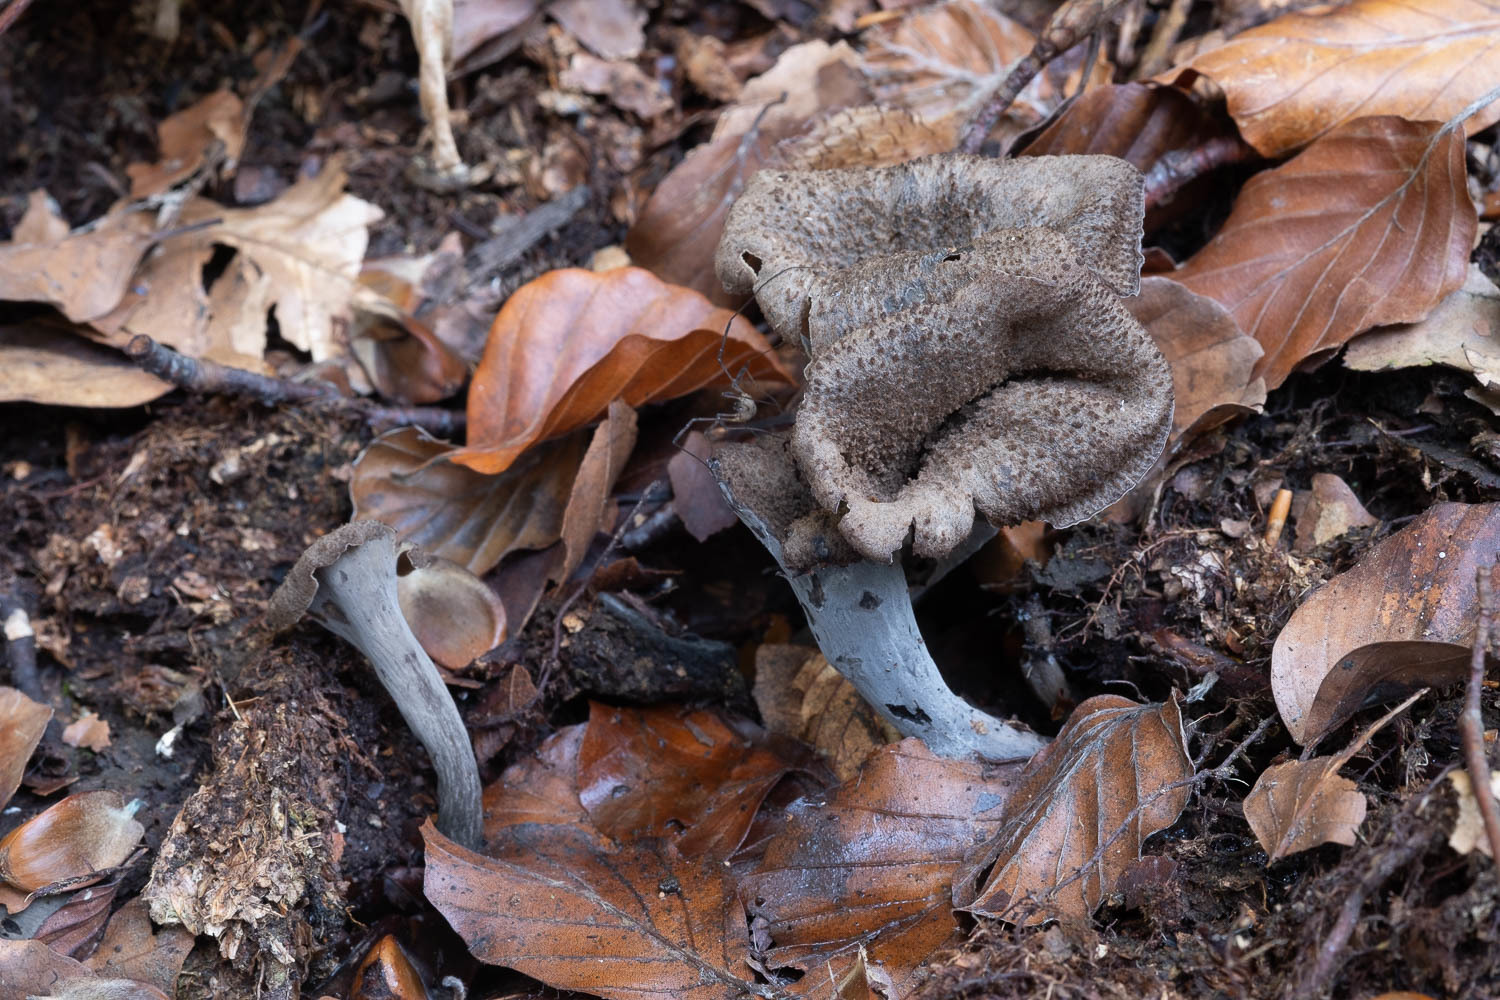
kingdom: Fungi
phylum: Basidiomycota
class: Agaricomycetes
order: Cantharellales
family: Hydnaceae
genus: Craterellus
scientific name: Craterellus cornucopioides
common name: Horn of plenty
